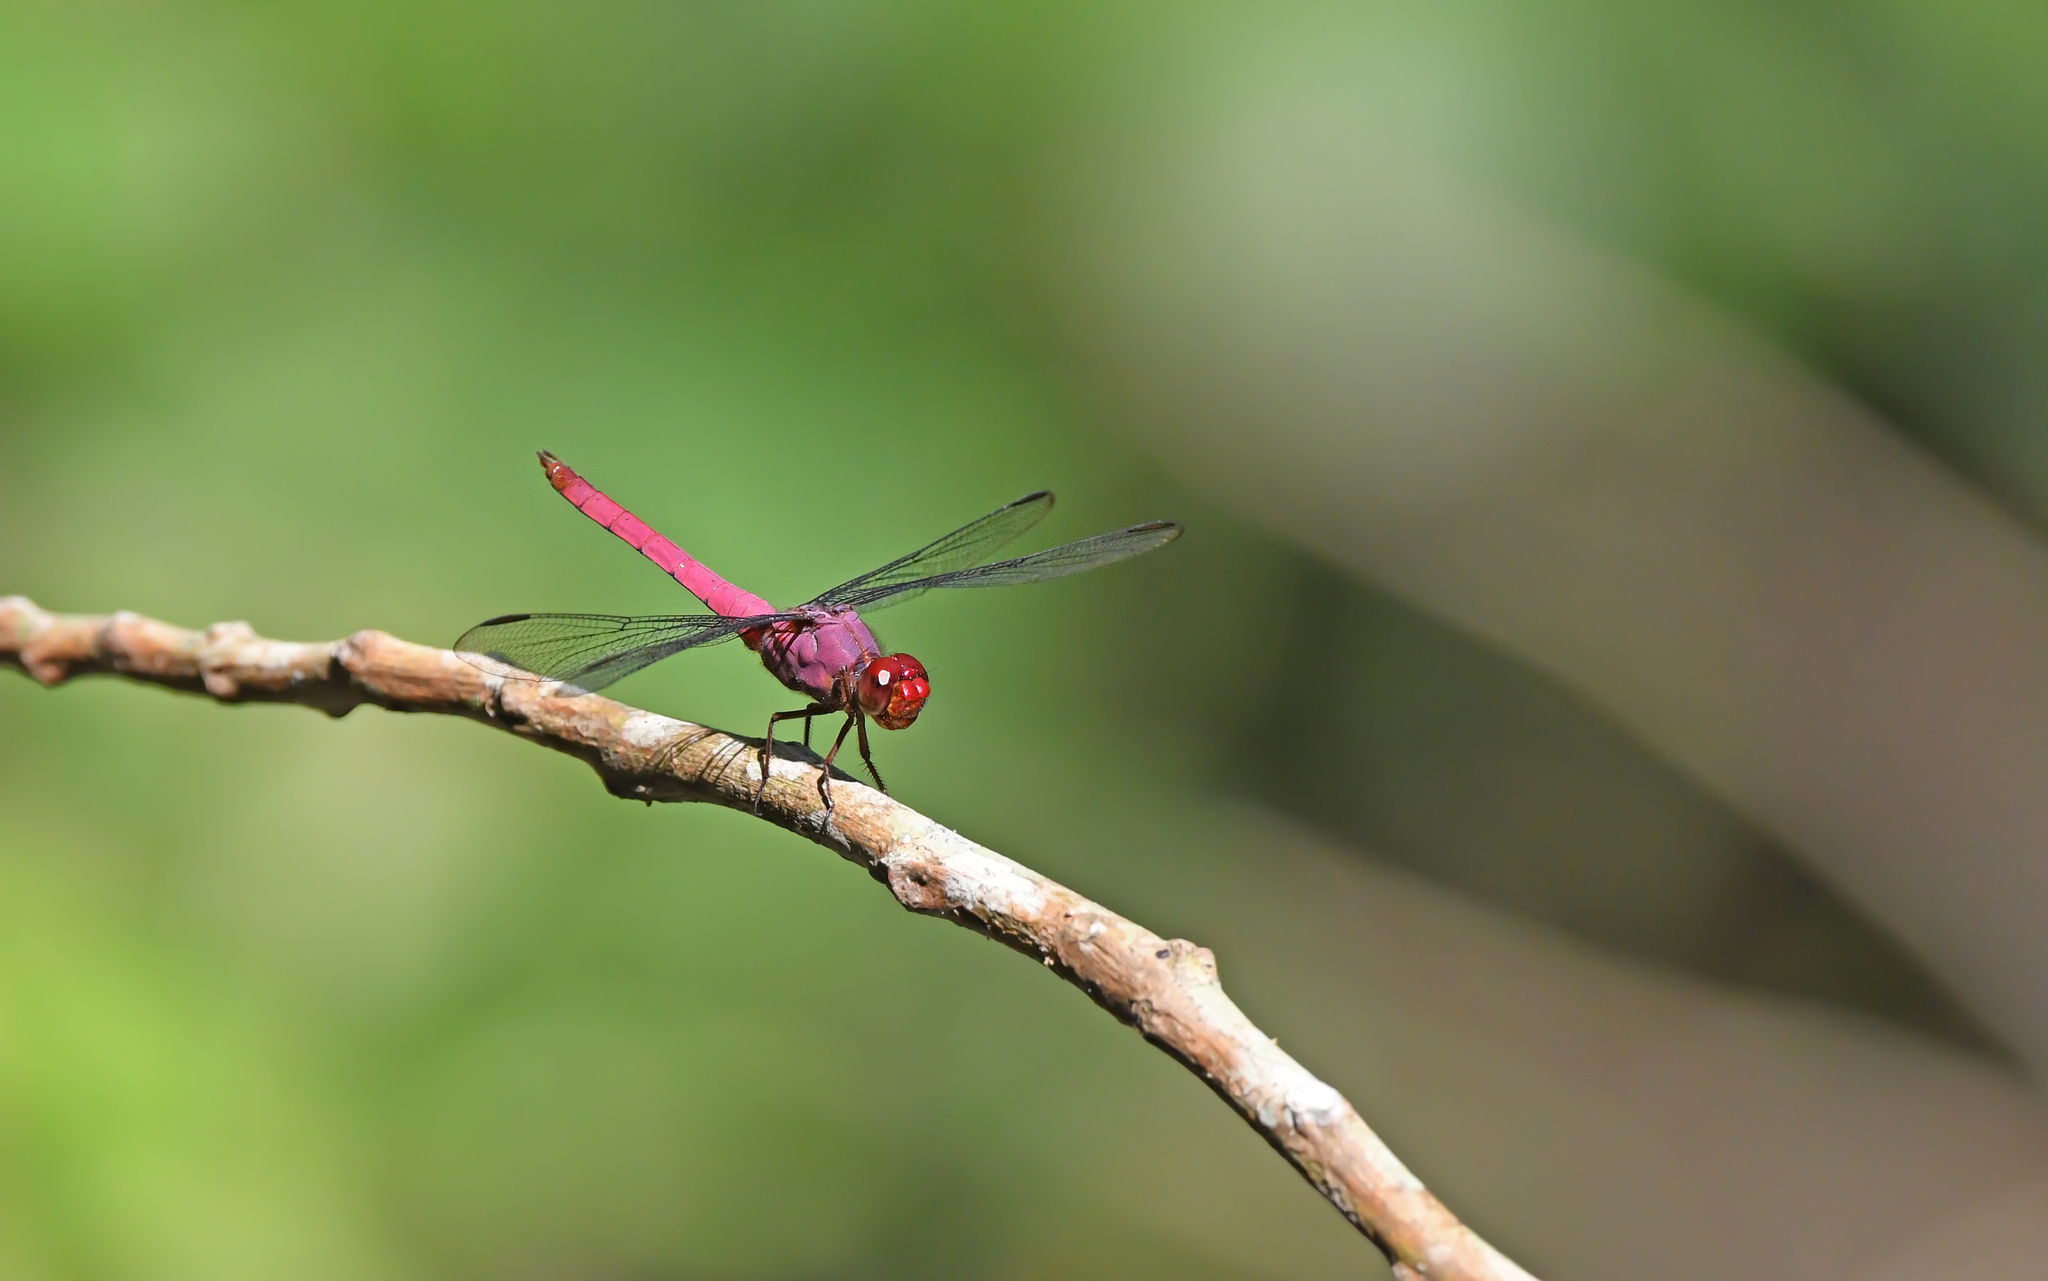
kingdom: Animalia
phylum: Arthropoda
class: Insecta
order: Odonata
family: Libellulidae
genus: Orthemis
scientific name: Orthemis discolor
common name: Carmine skimmer
